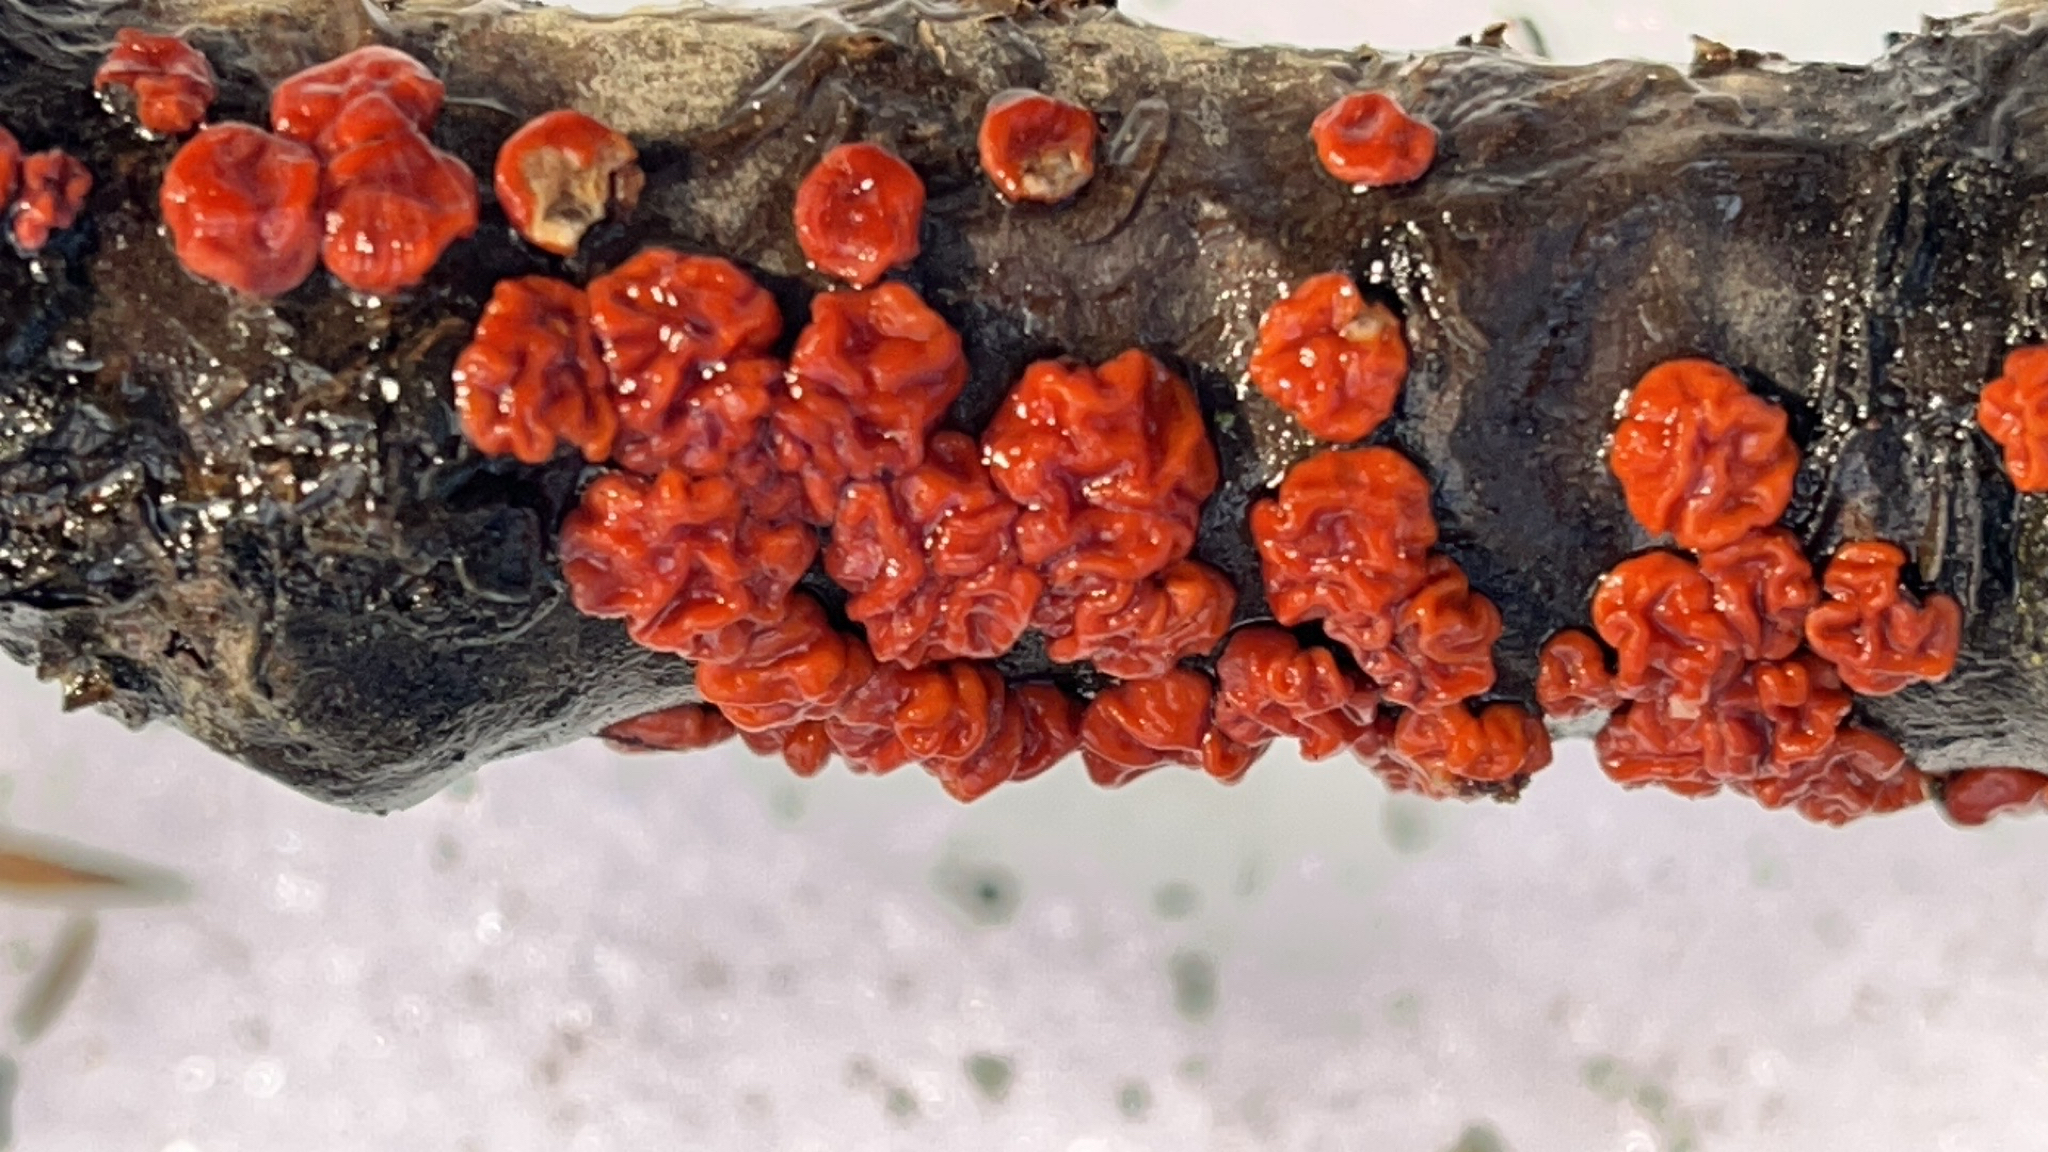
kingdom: Fungi
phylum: Basidiomycota
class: Agaricomycetes
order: Russulales
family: Peniophoraceae
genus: Peniophora
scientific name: Peniophora rufa
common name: Red tree brain fungus
